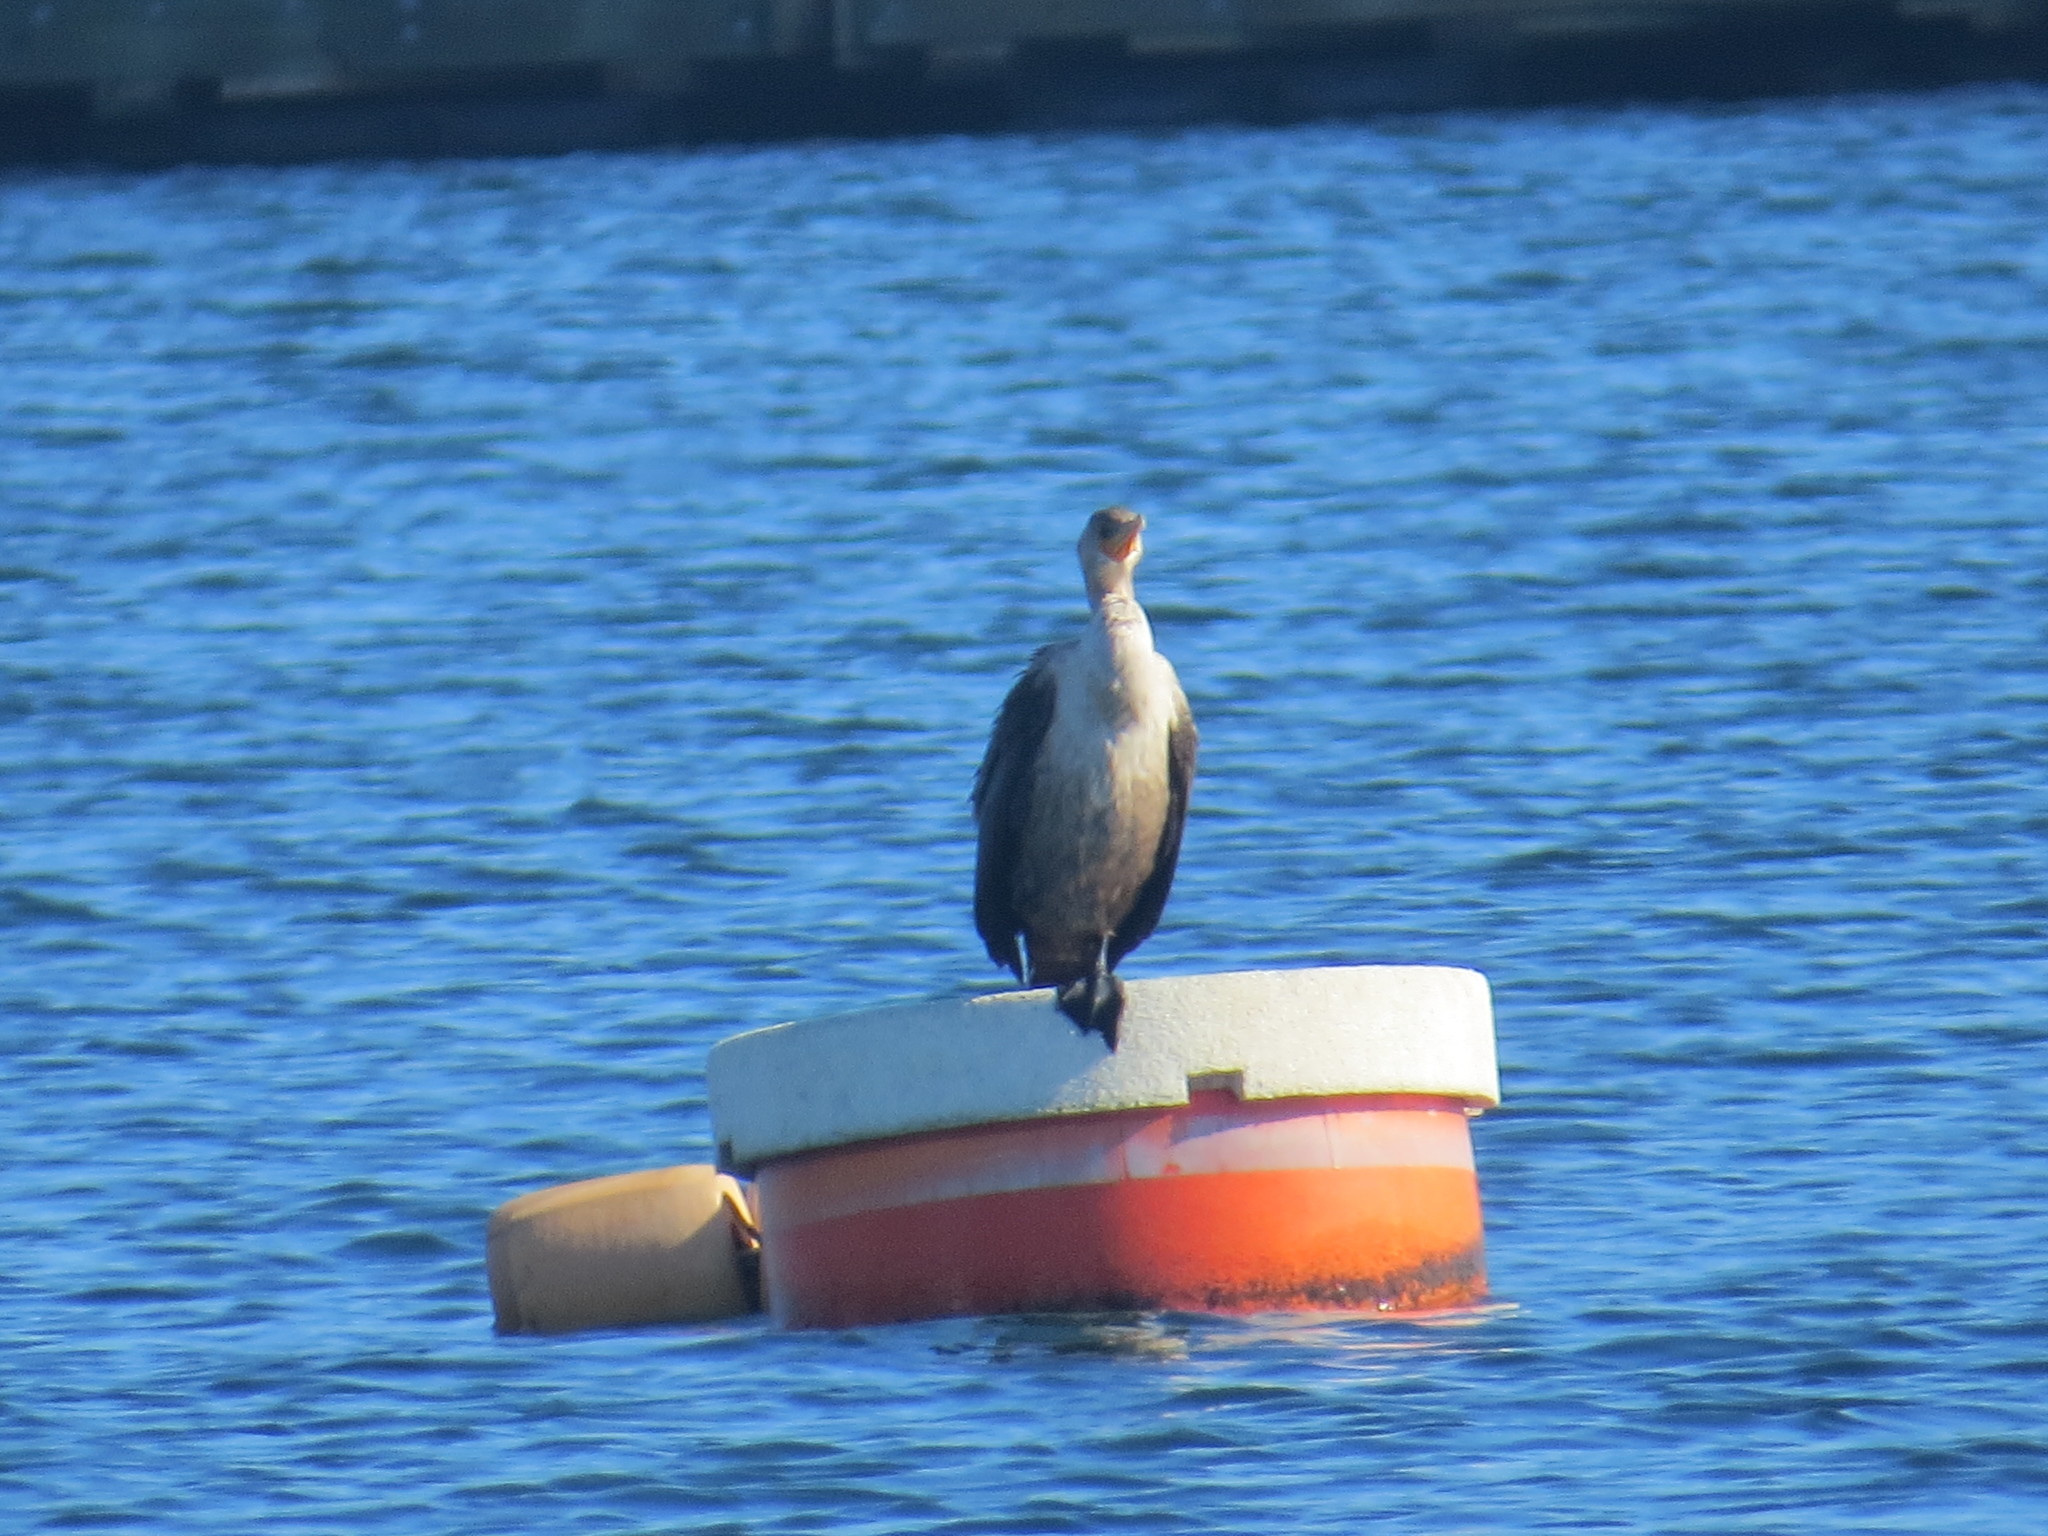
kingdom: Animalia
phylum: Chordata
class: Aves
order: Suliformes
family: Phalacrocoracidae
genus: Phalacrocorax
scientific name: Phalacrocorax auritus
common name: Double-crested cormorant
